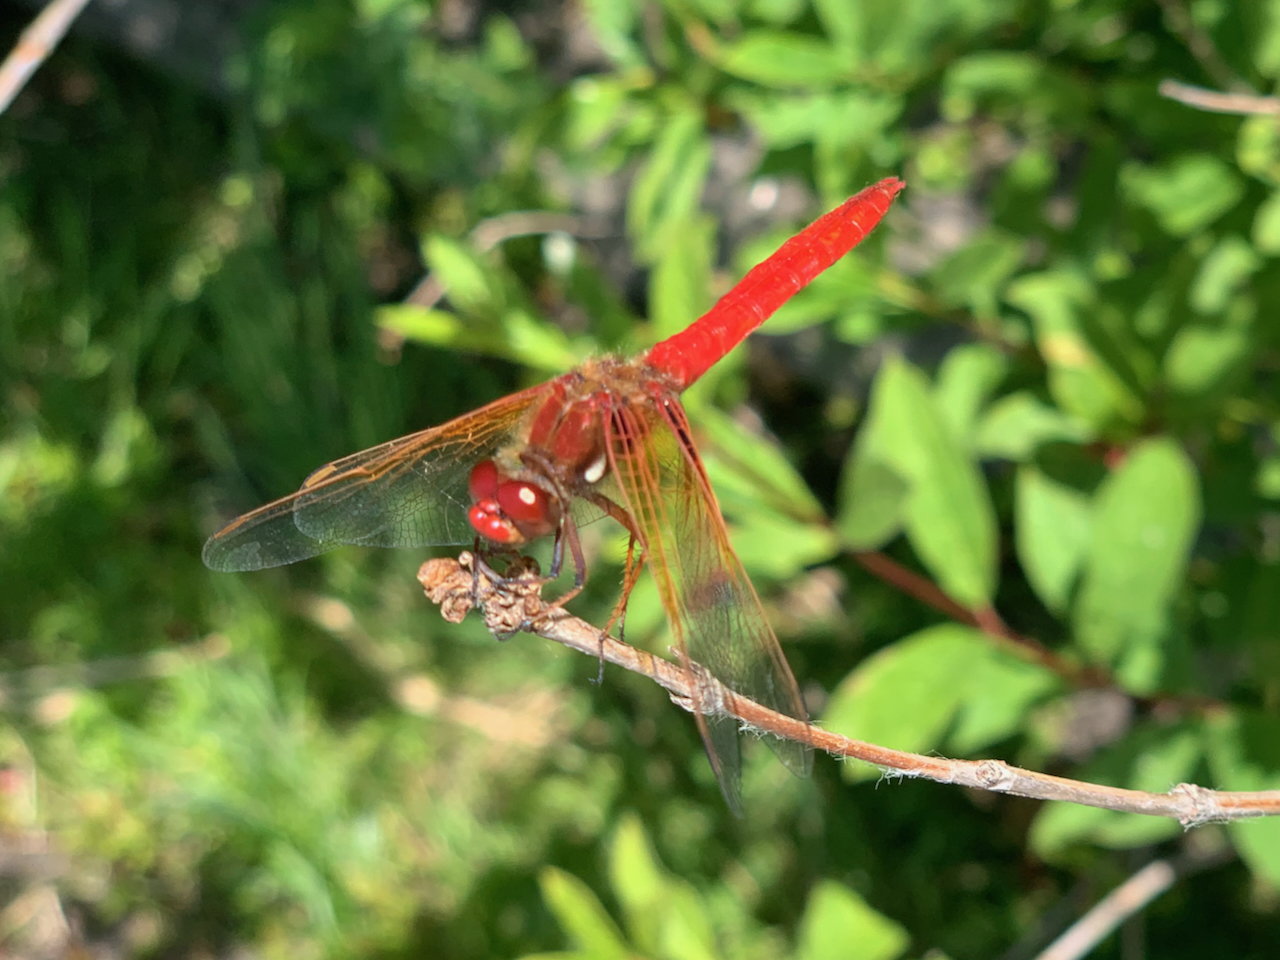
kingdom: Animalia
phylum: Arthropoda
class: Insecta
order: Odonata
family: Libellulidae
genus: Sympetrum
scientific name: Sympetrum illotum
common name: Cardinal meadowhawk
